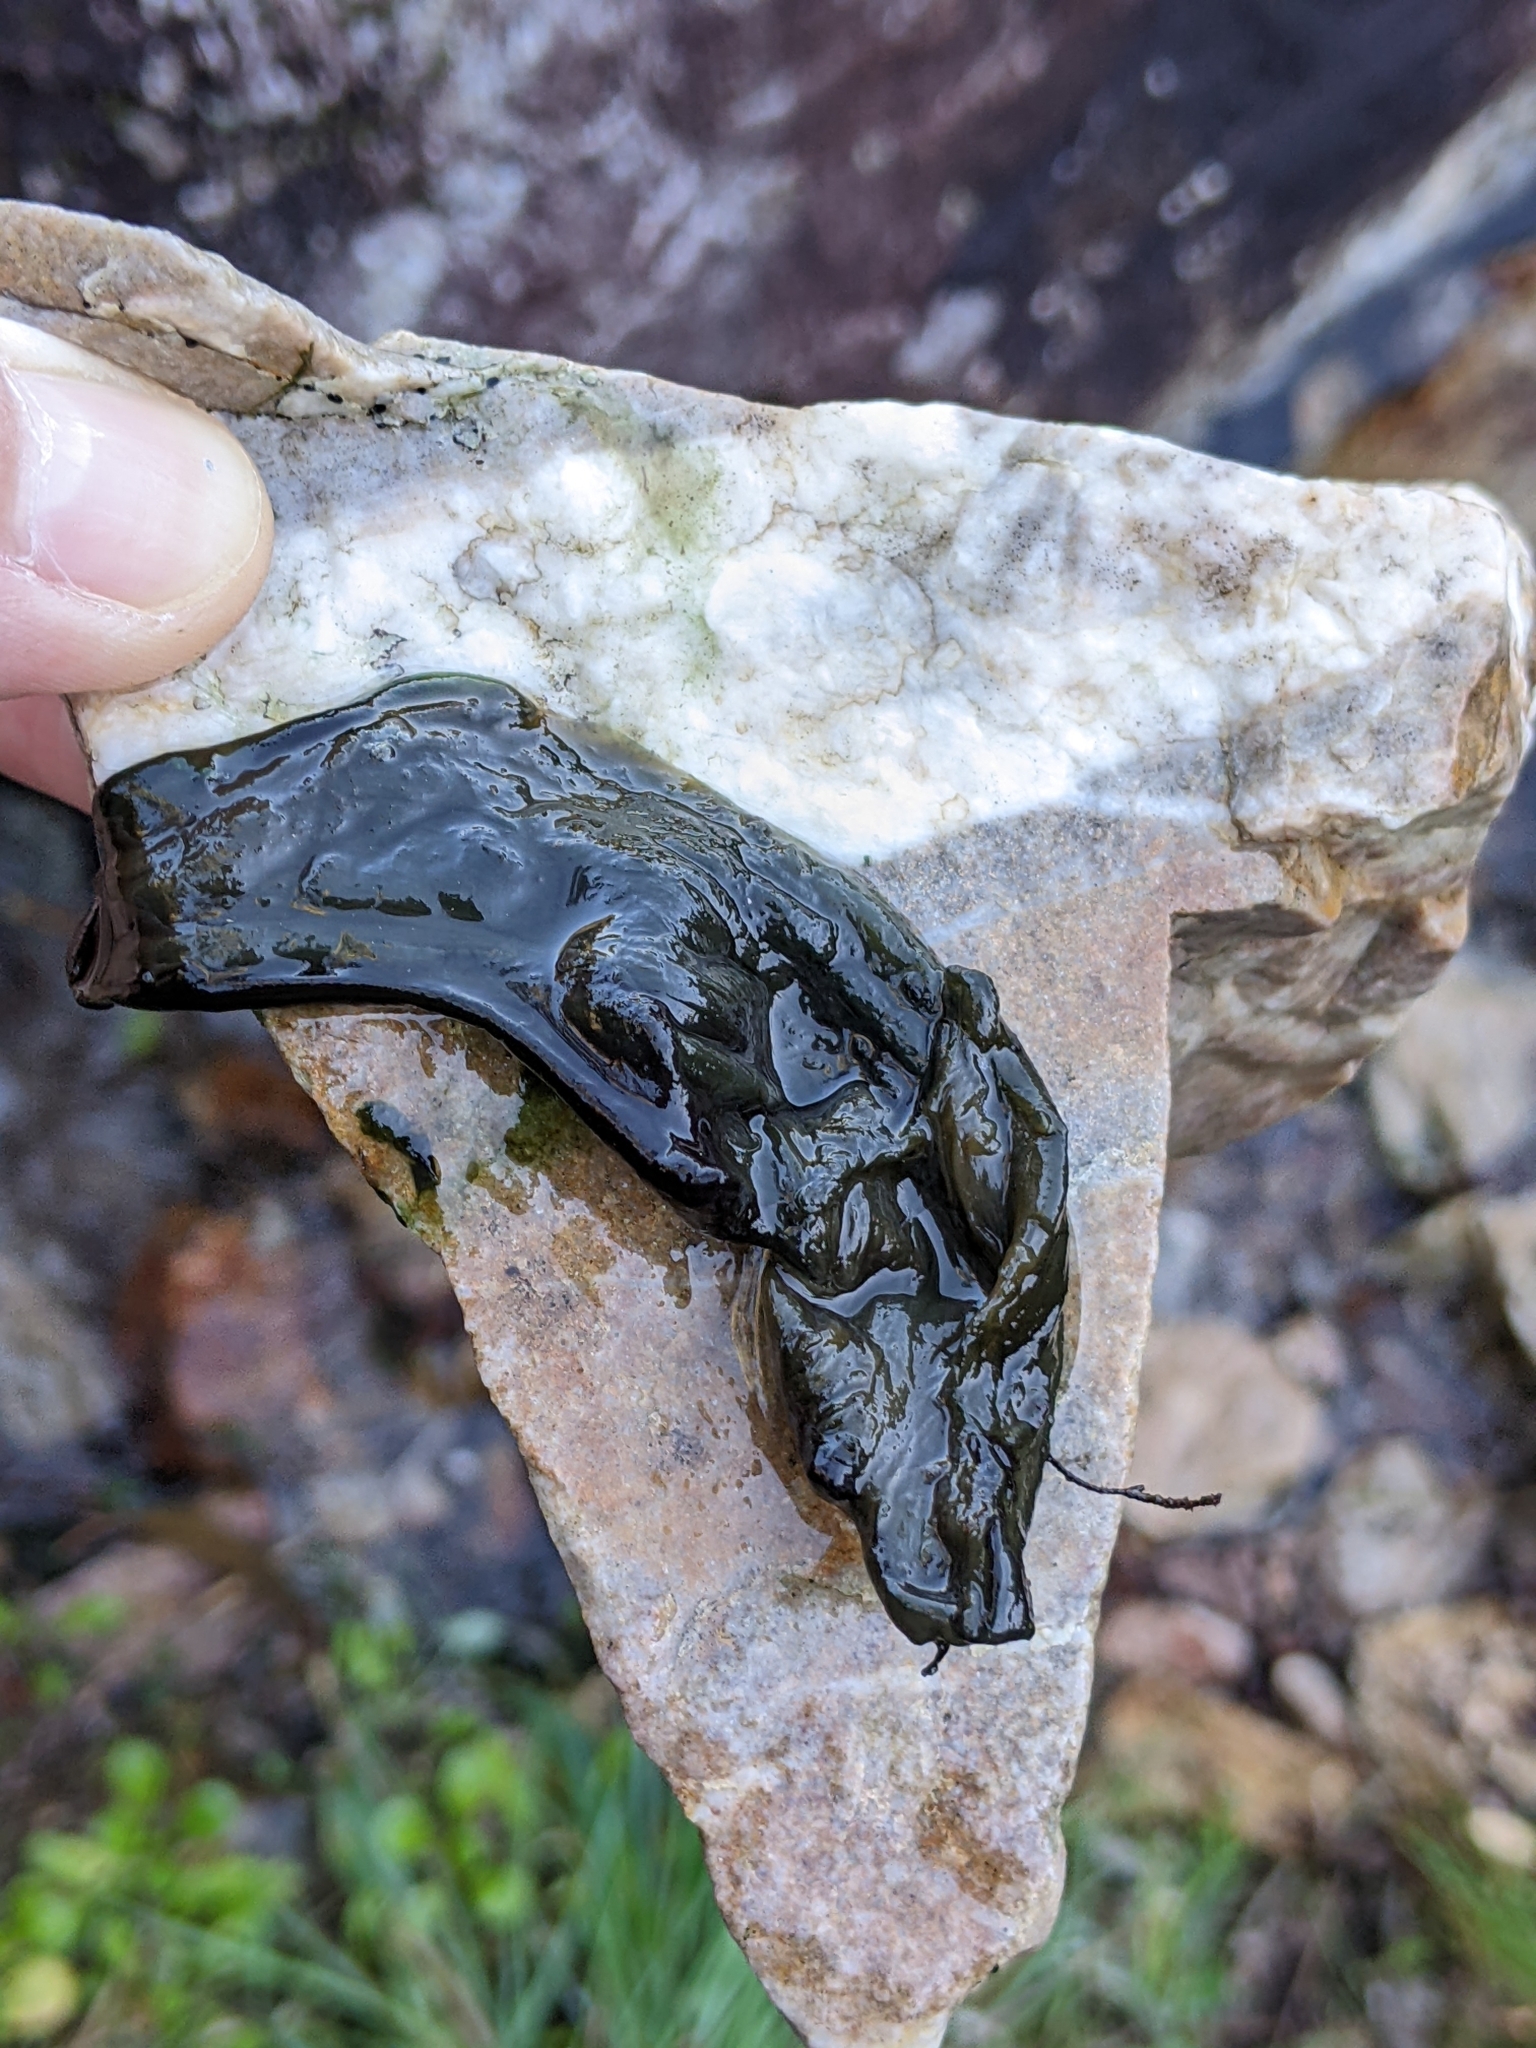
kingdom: Bacteria
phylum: Cyanobacteria
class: Cyanobacteriia
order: Cyanobacteriales
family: Nostocaceae
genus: Nostoc
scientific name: Nostoc commune
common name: Star jelly
